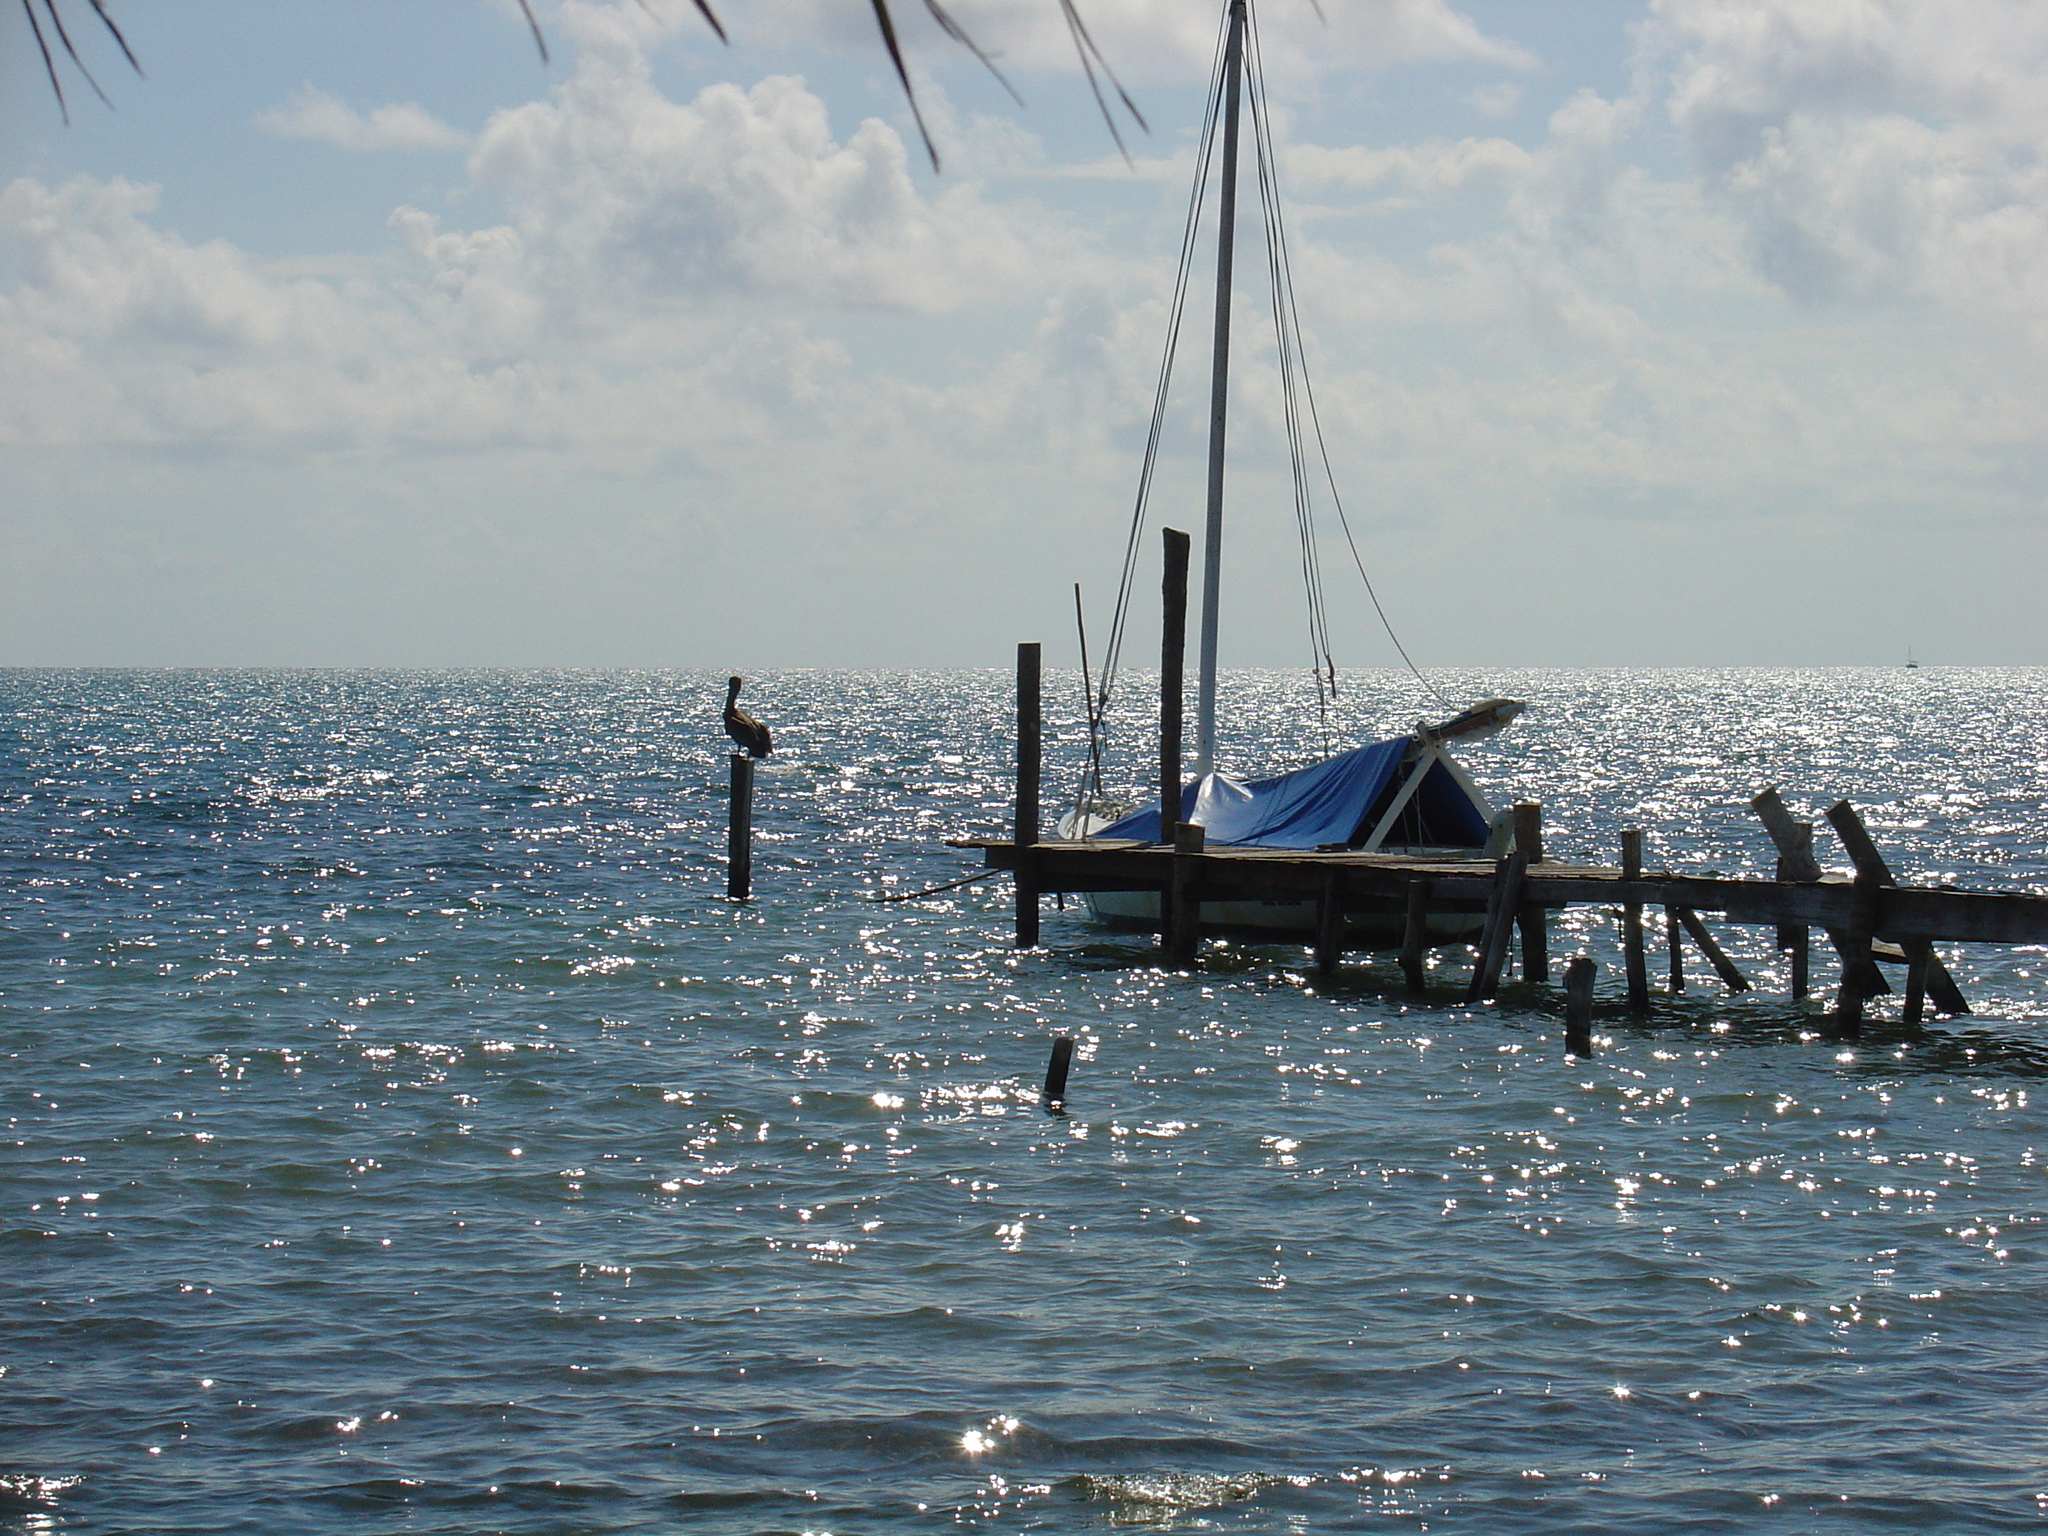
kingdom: Animalia
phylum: Chordata
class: Aves
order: Pelecaniformes
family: Pelecanidae
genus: Pelecanus
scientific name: Pelecanus occidentalis
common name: Brown pelican
